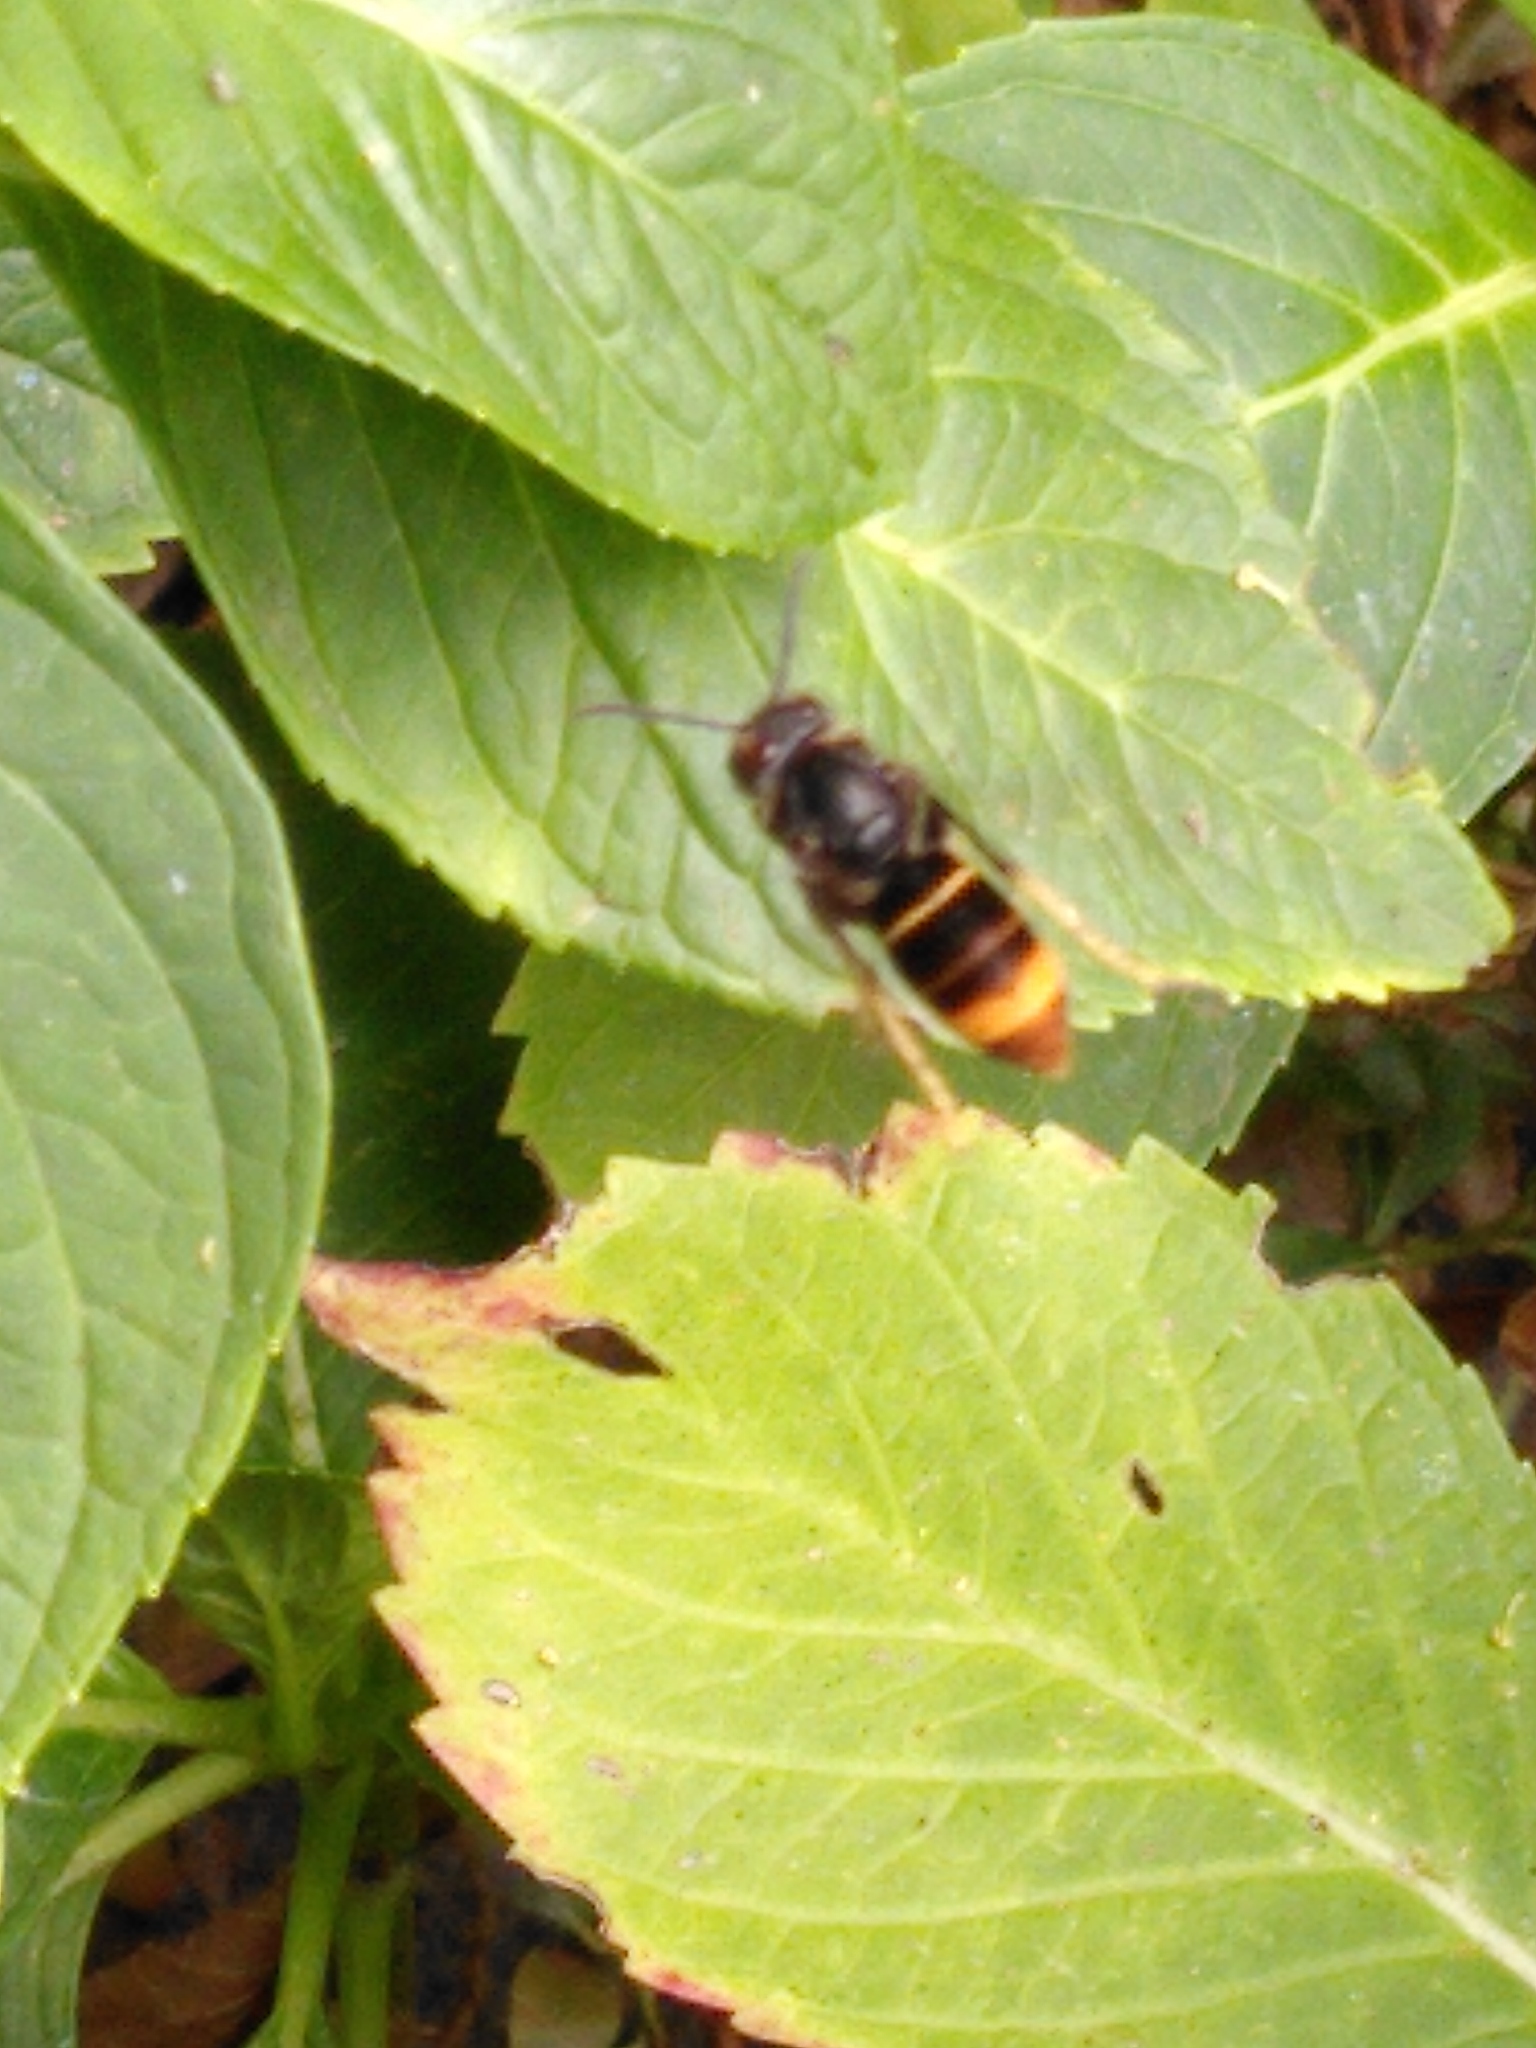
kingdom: Animalia
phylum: Arthropoda
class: Insecta
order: Hymenoptera
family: Vespidae
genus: Vespa
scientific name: Vespa velutina
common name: Asian hornet
